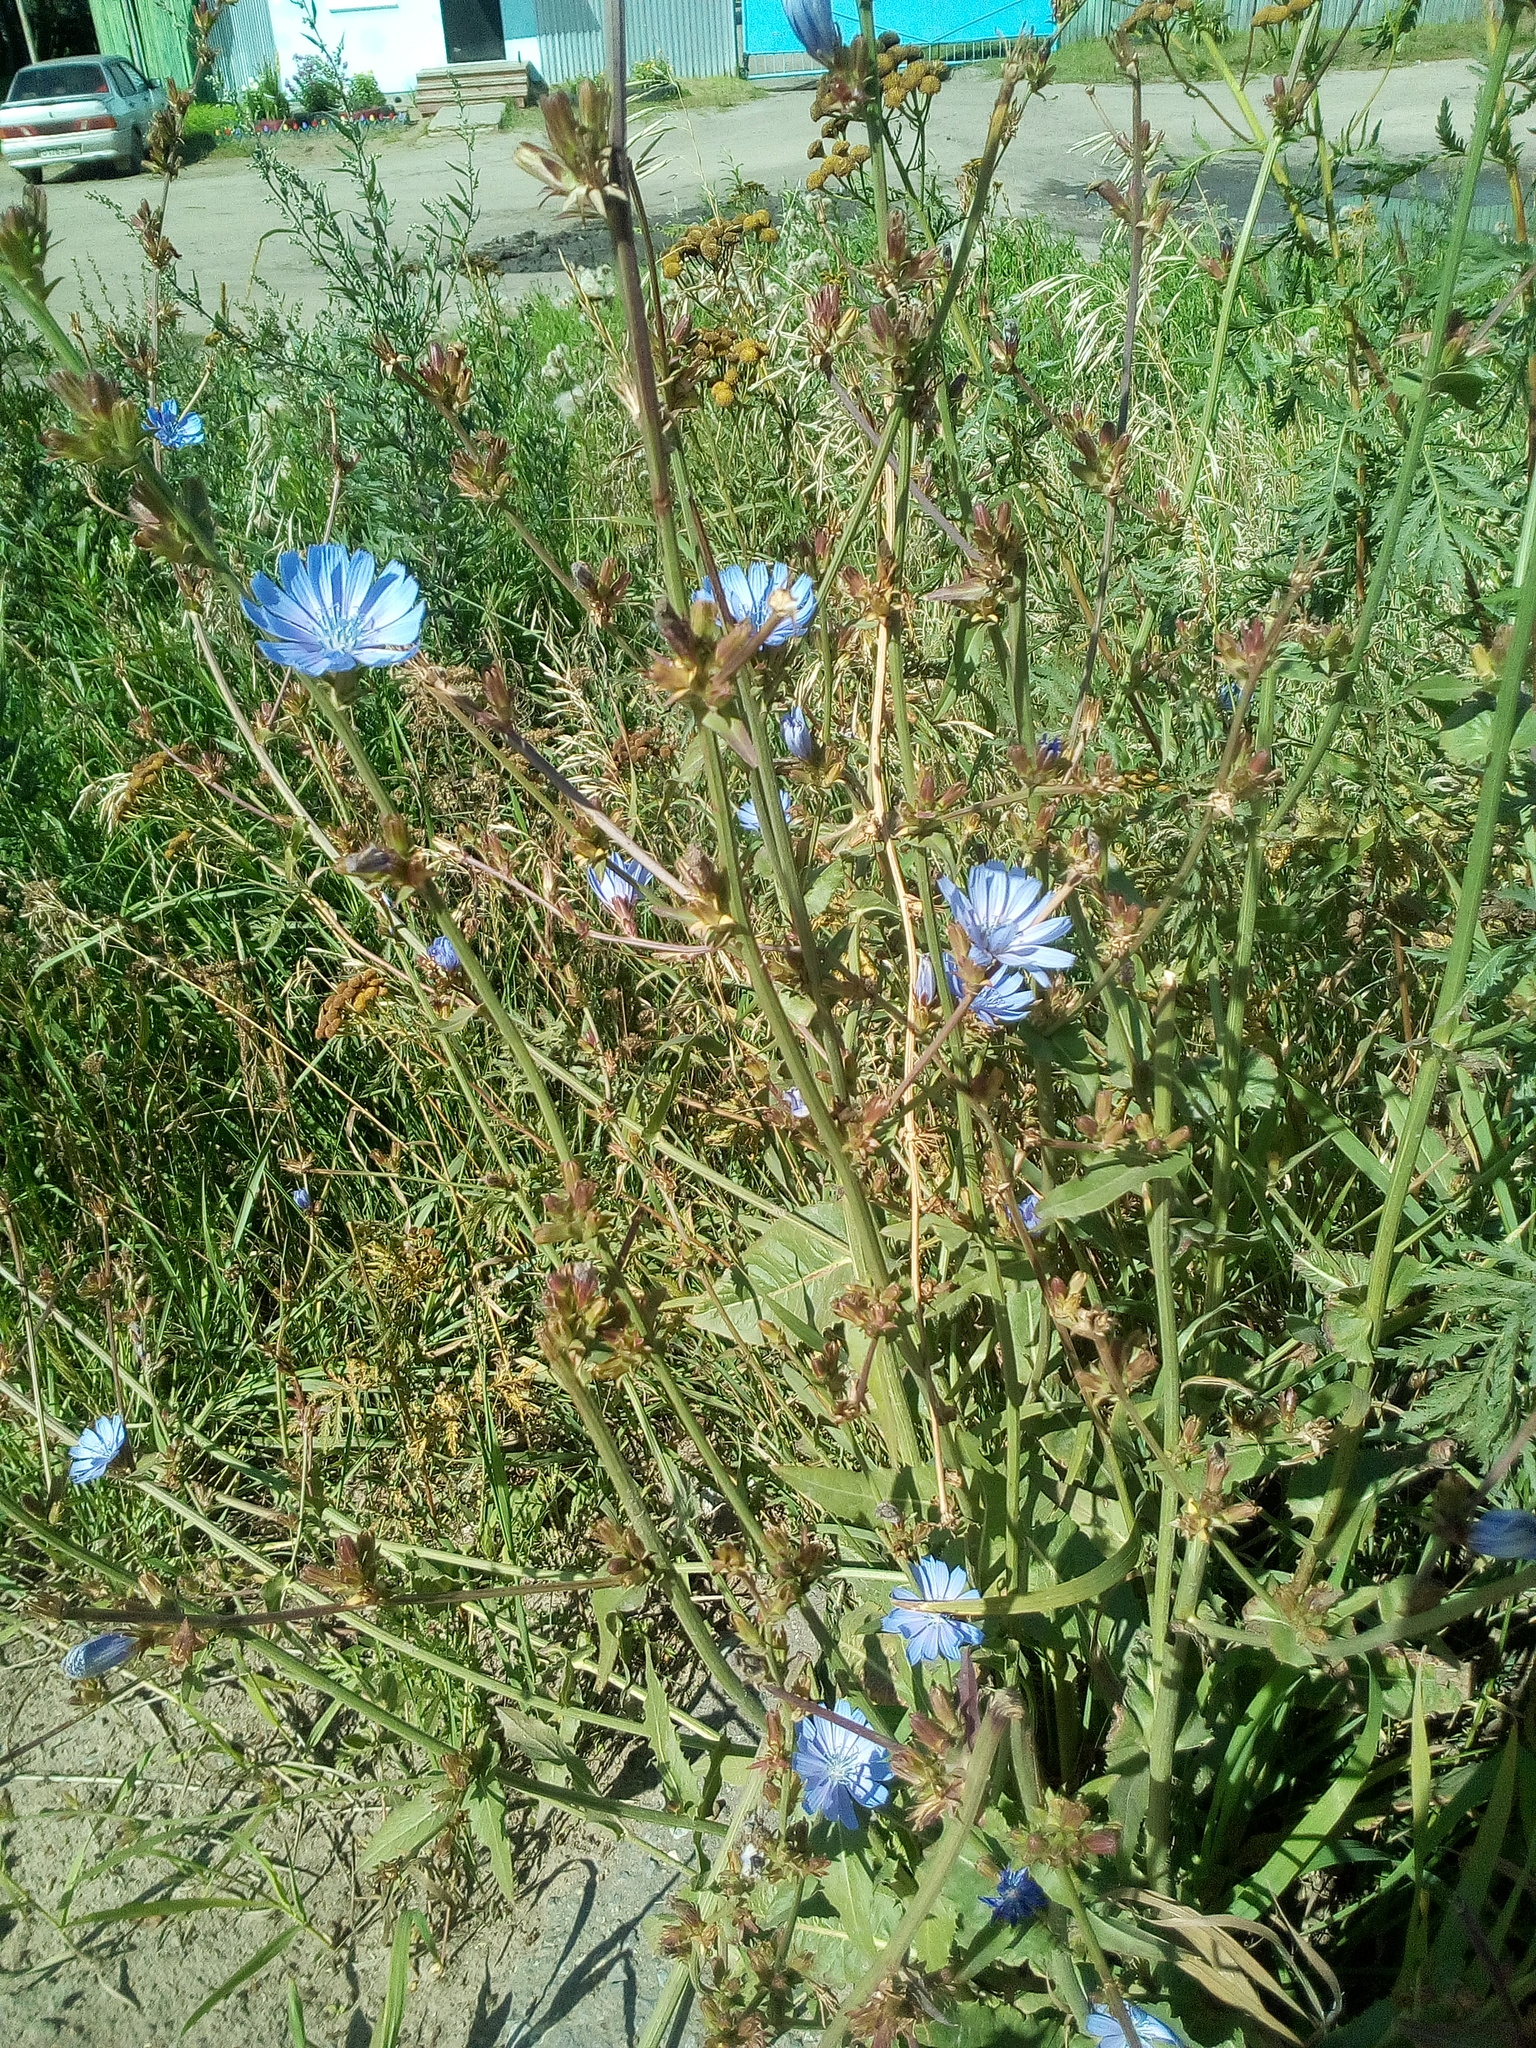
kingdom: Plantae
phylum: Tracheophyta
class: Magnoliopsida
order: Asterales
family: Asteraceae
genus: Cichorium
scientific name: Cichorium intybus
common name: Chicory
